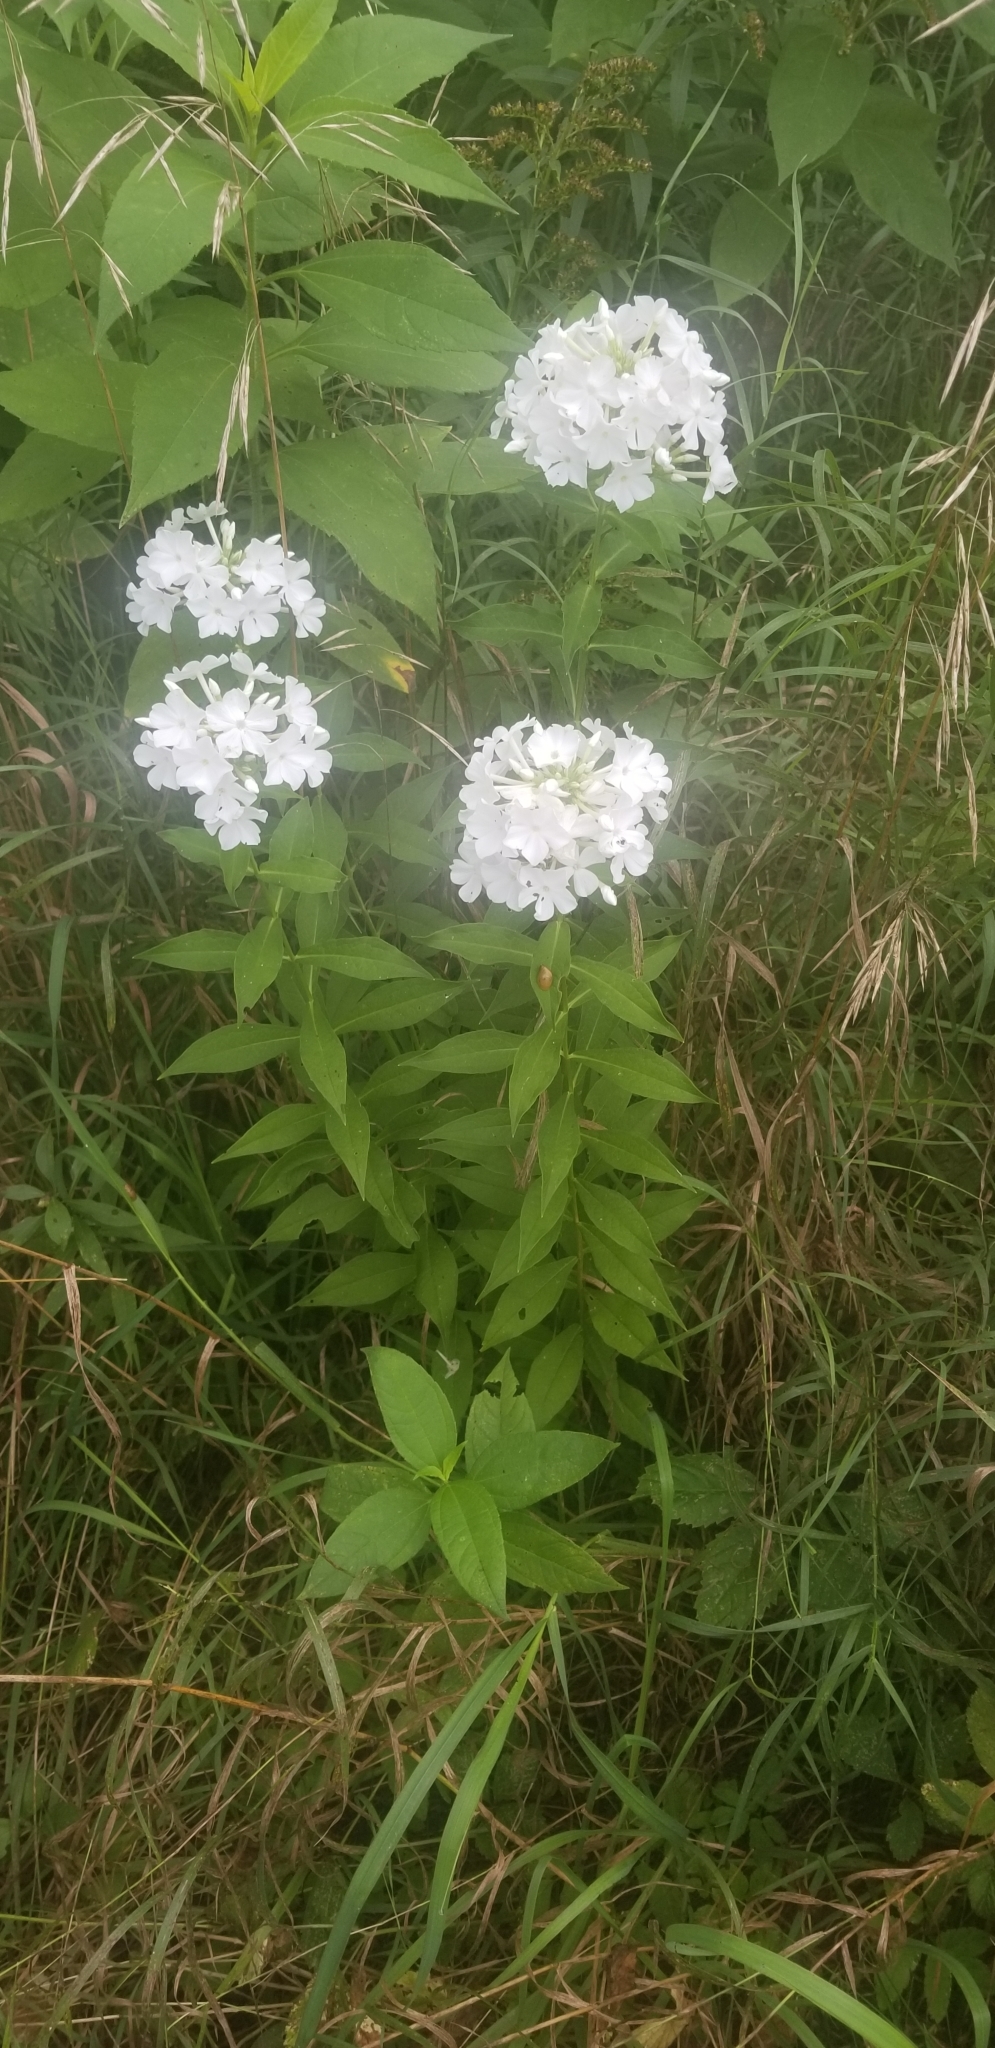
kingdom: Plantae
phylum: Tracheophyta
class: Magnoliopsida
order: Ericales
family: Polemoniaceae
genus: Phlox
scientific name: Phlox paniculata
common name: Fall phlox
